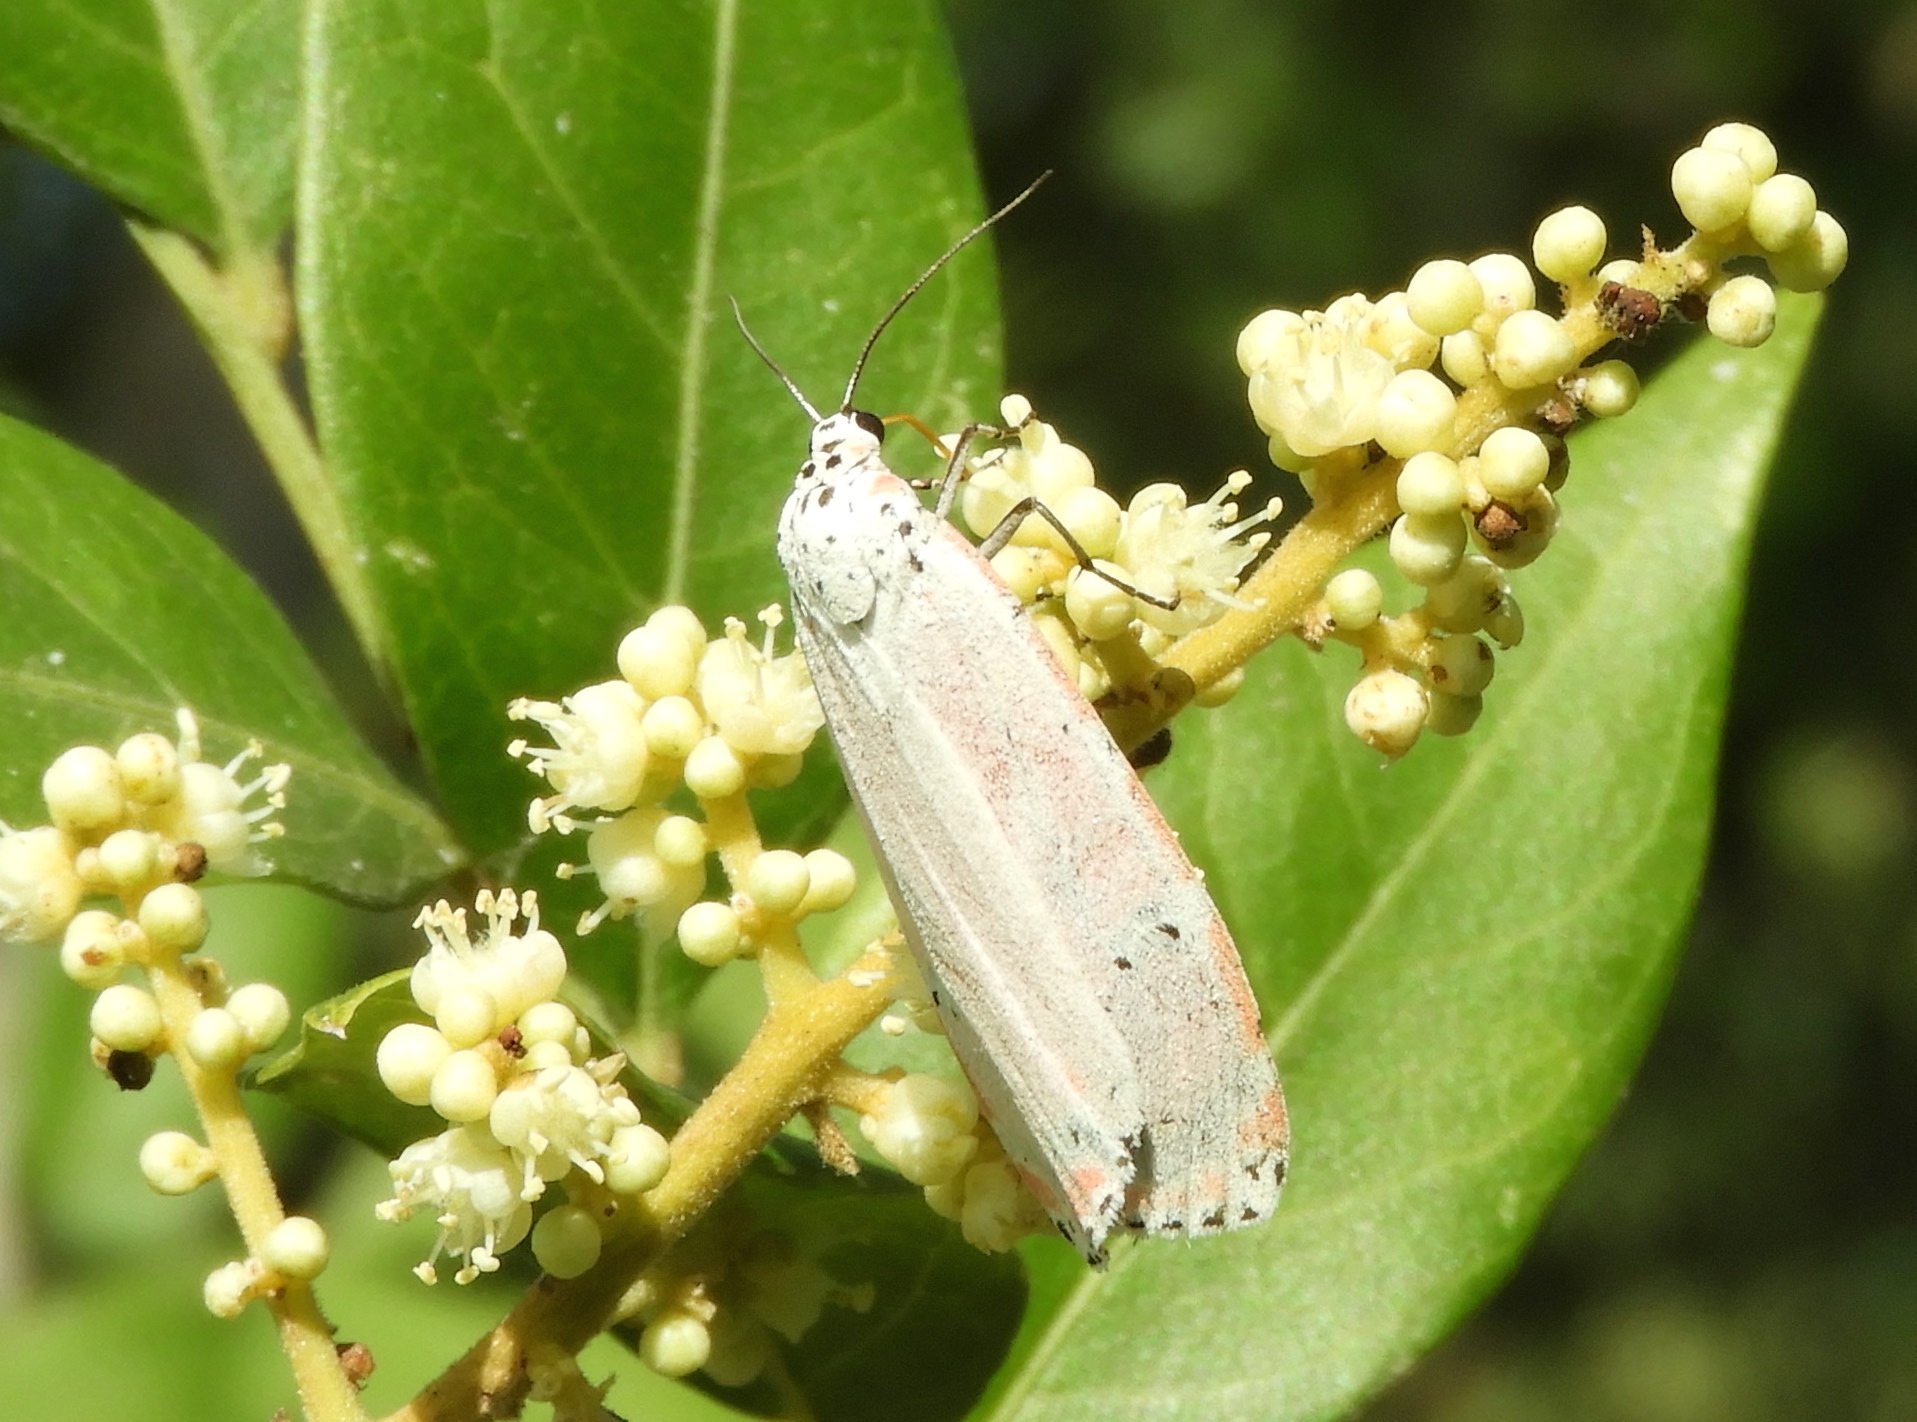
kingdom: Animalia
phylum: Arthropoda
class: Insecta
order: Lepidoptera
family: Erebidae
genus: Utetheisa
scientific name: Utetheisa ornatrix
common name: Beautiful utetheisa
